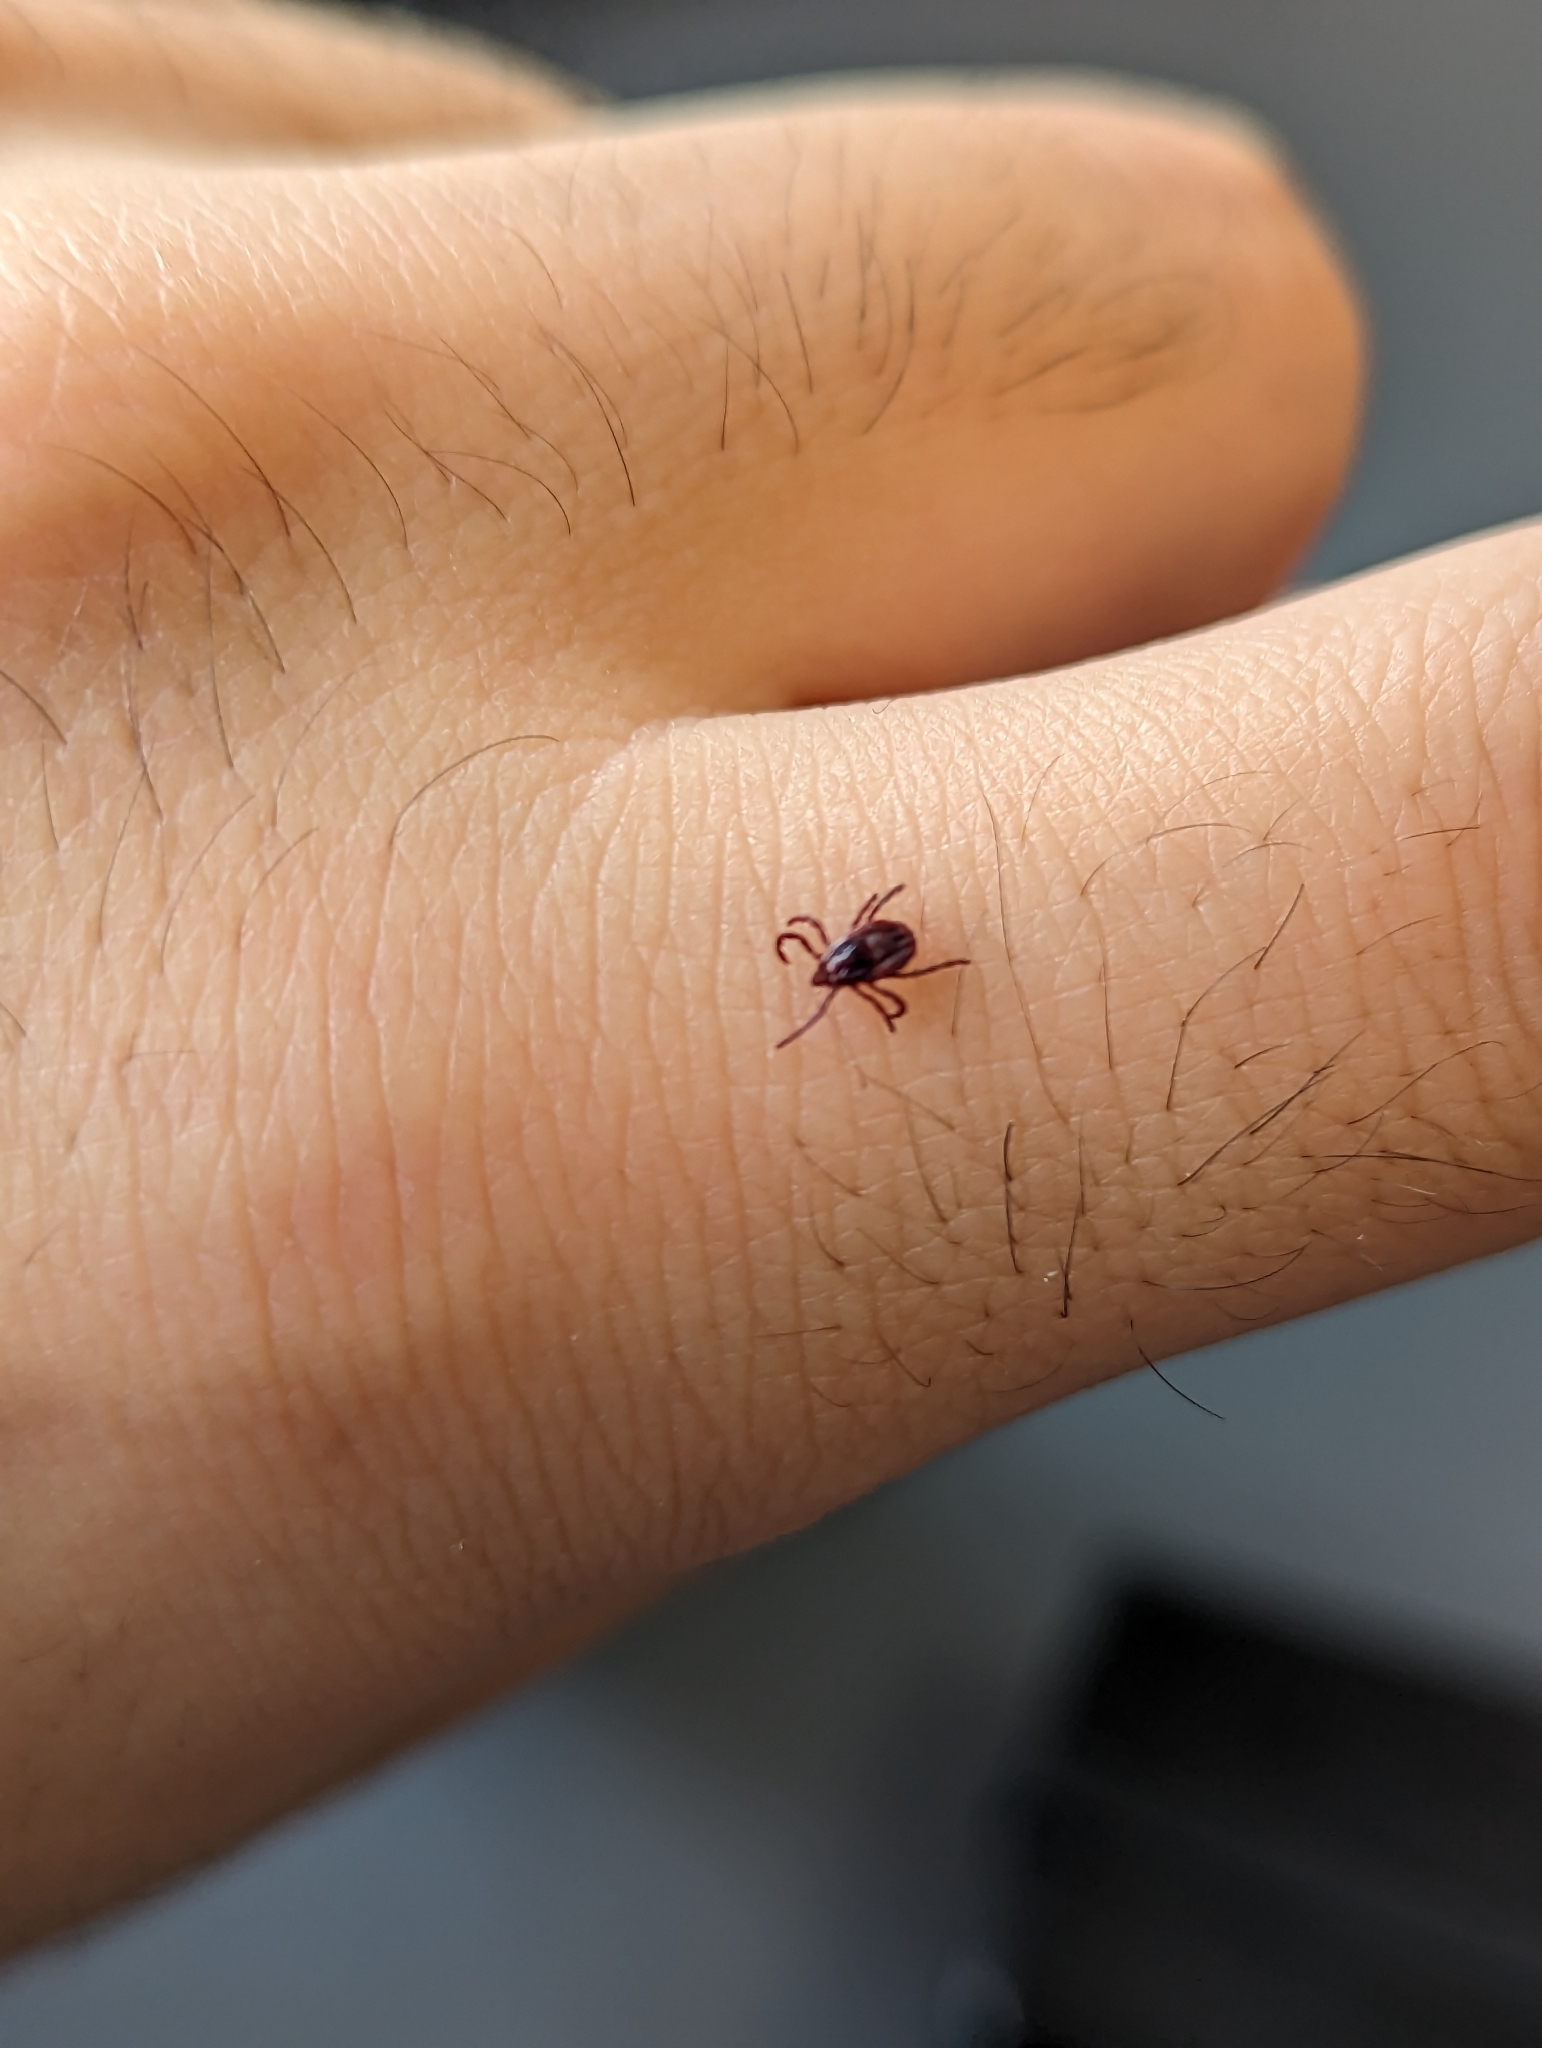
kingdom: Animalia
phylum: Arthropoda
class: Arachnida
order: Ixodida
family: Ixodidae
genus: Rhipicephalus
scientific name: Rhipicephalus sanguineus
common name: Brown dog tick
